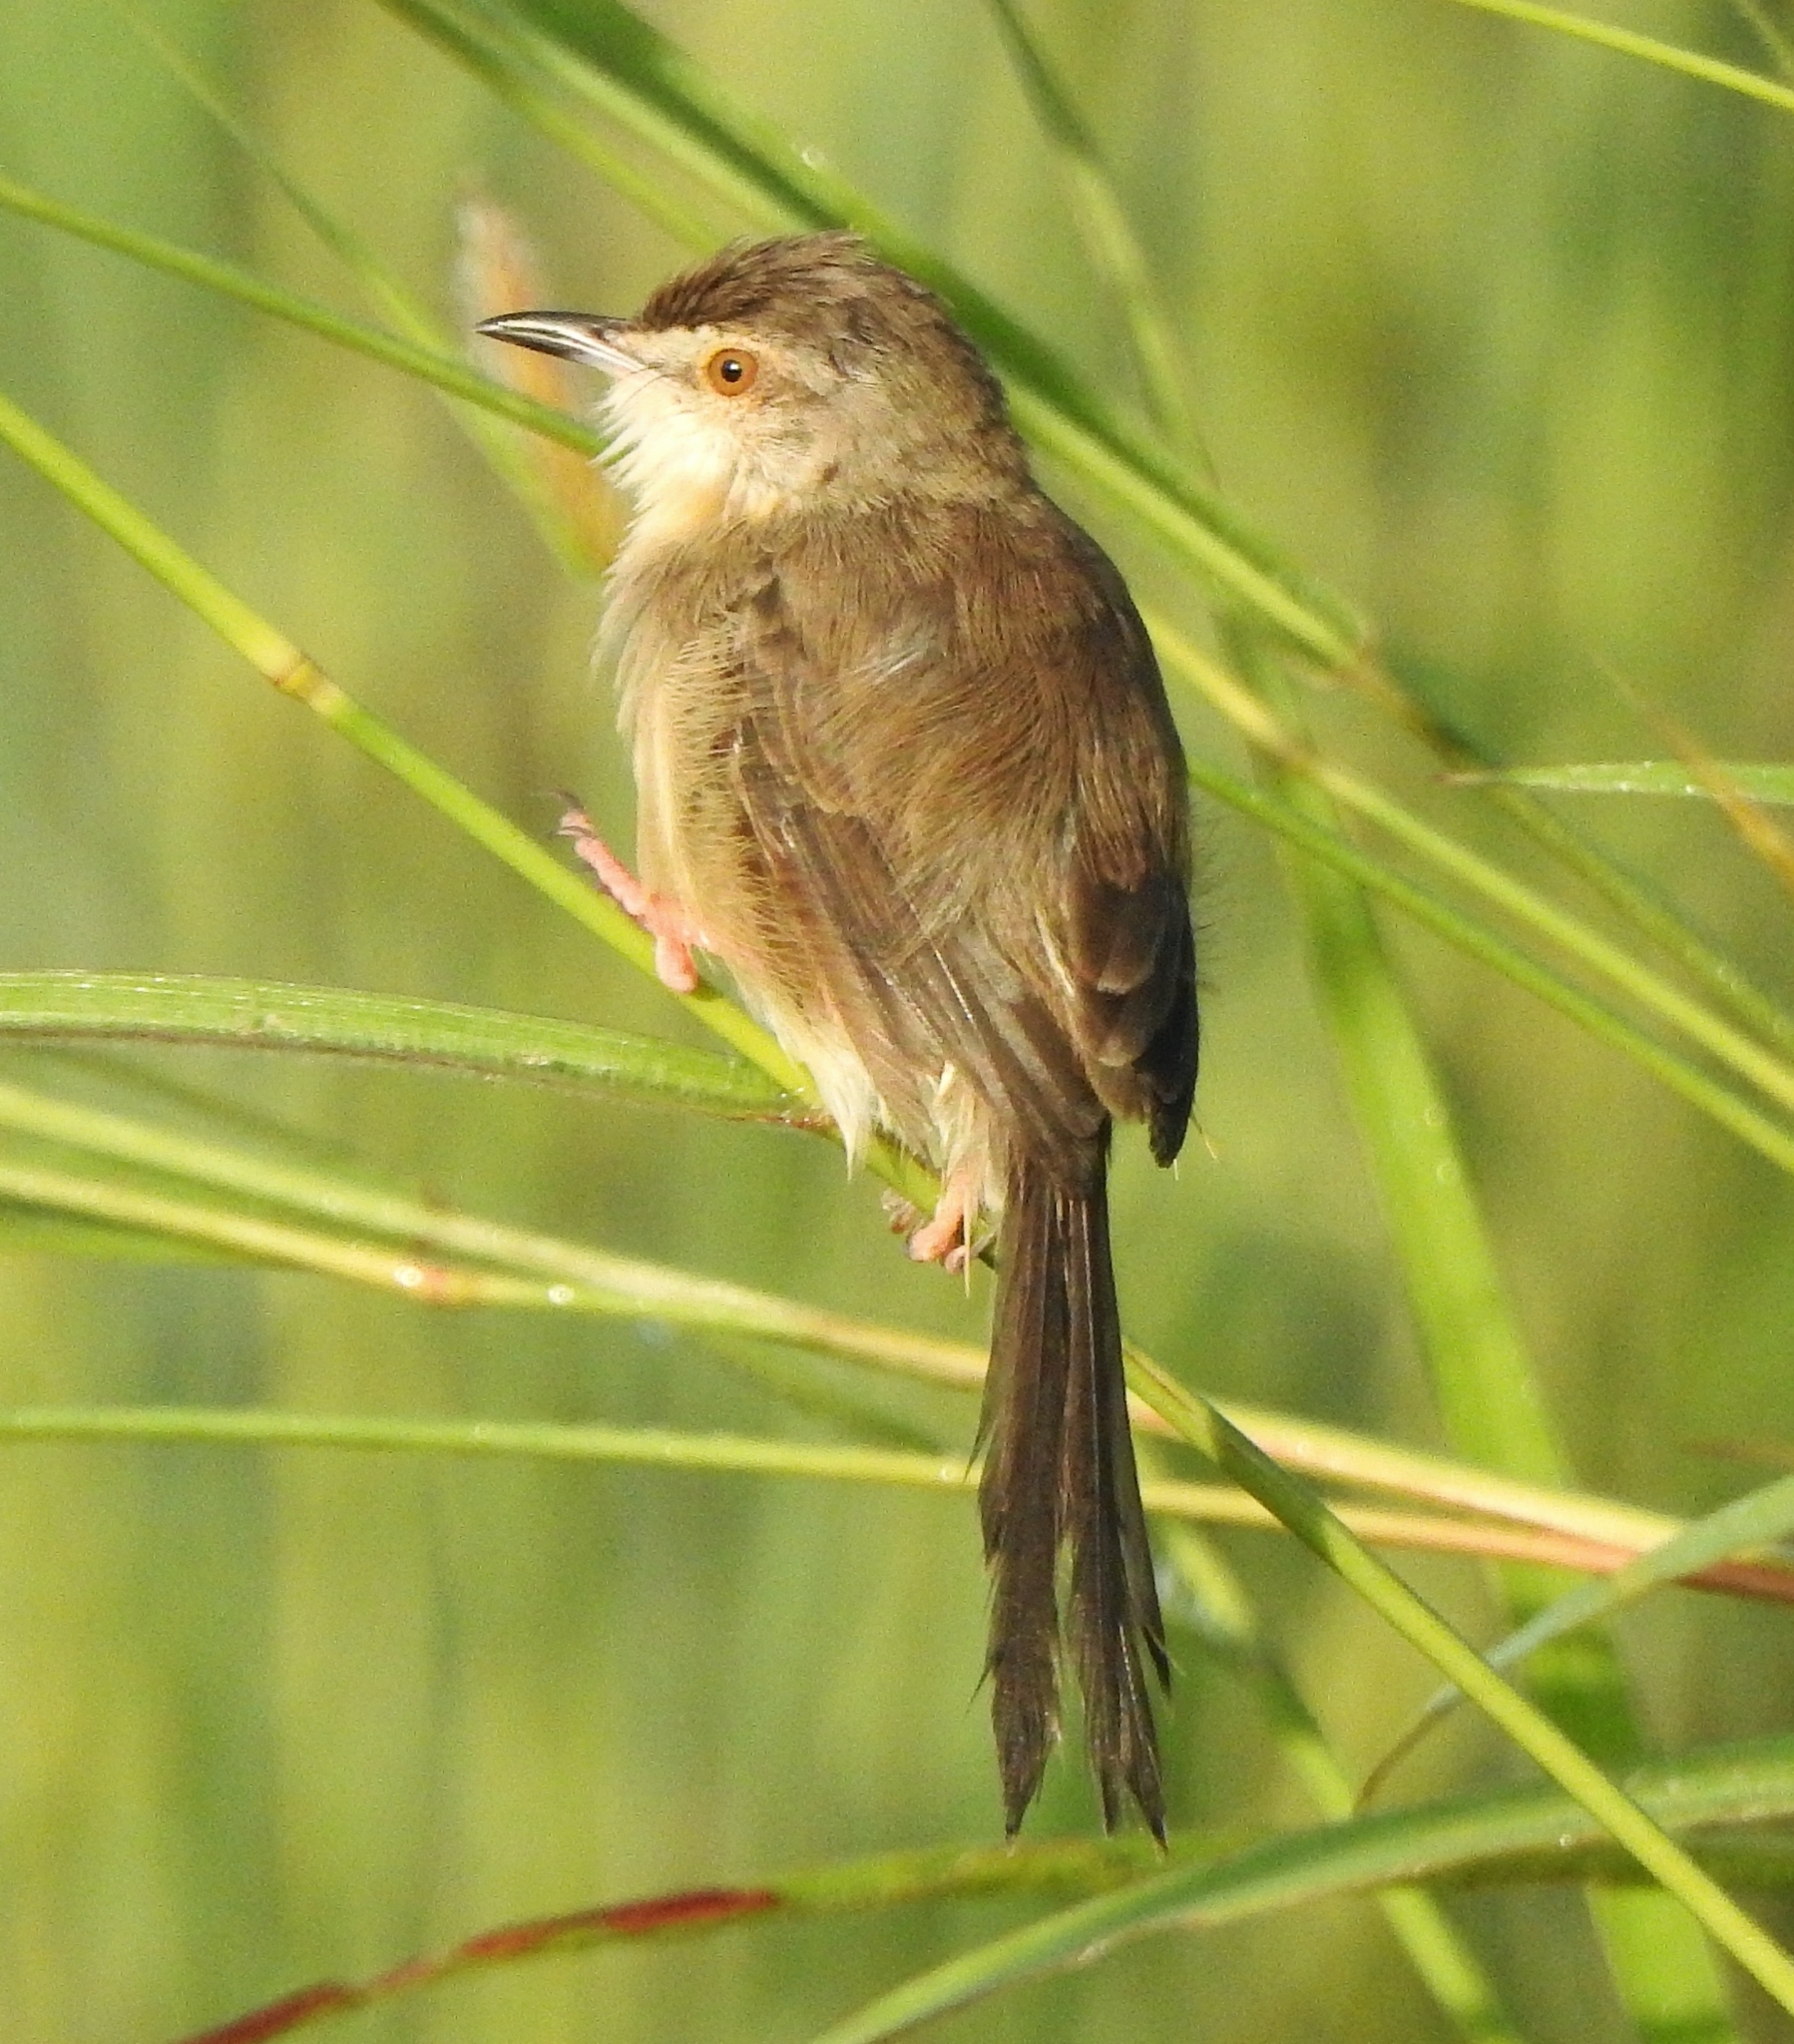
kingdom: Animalia
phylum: Chordata
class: Aves
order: Passeriformes
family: Cisticolidae
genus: Prinia
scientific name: Prinia inornata
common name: Plain prinia
